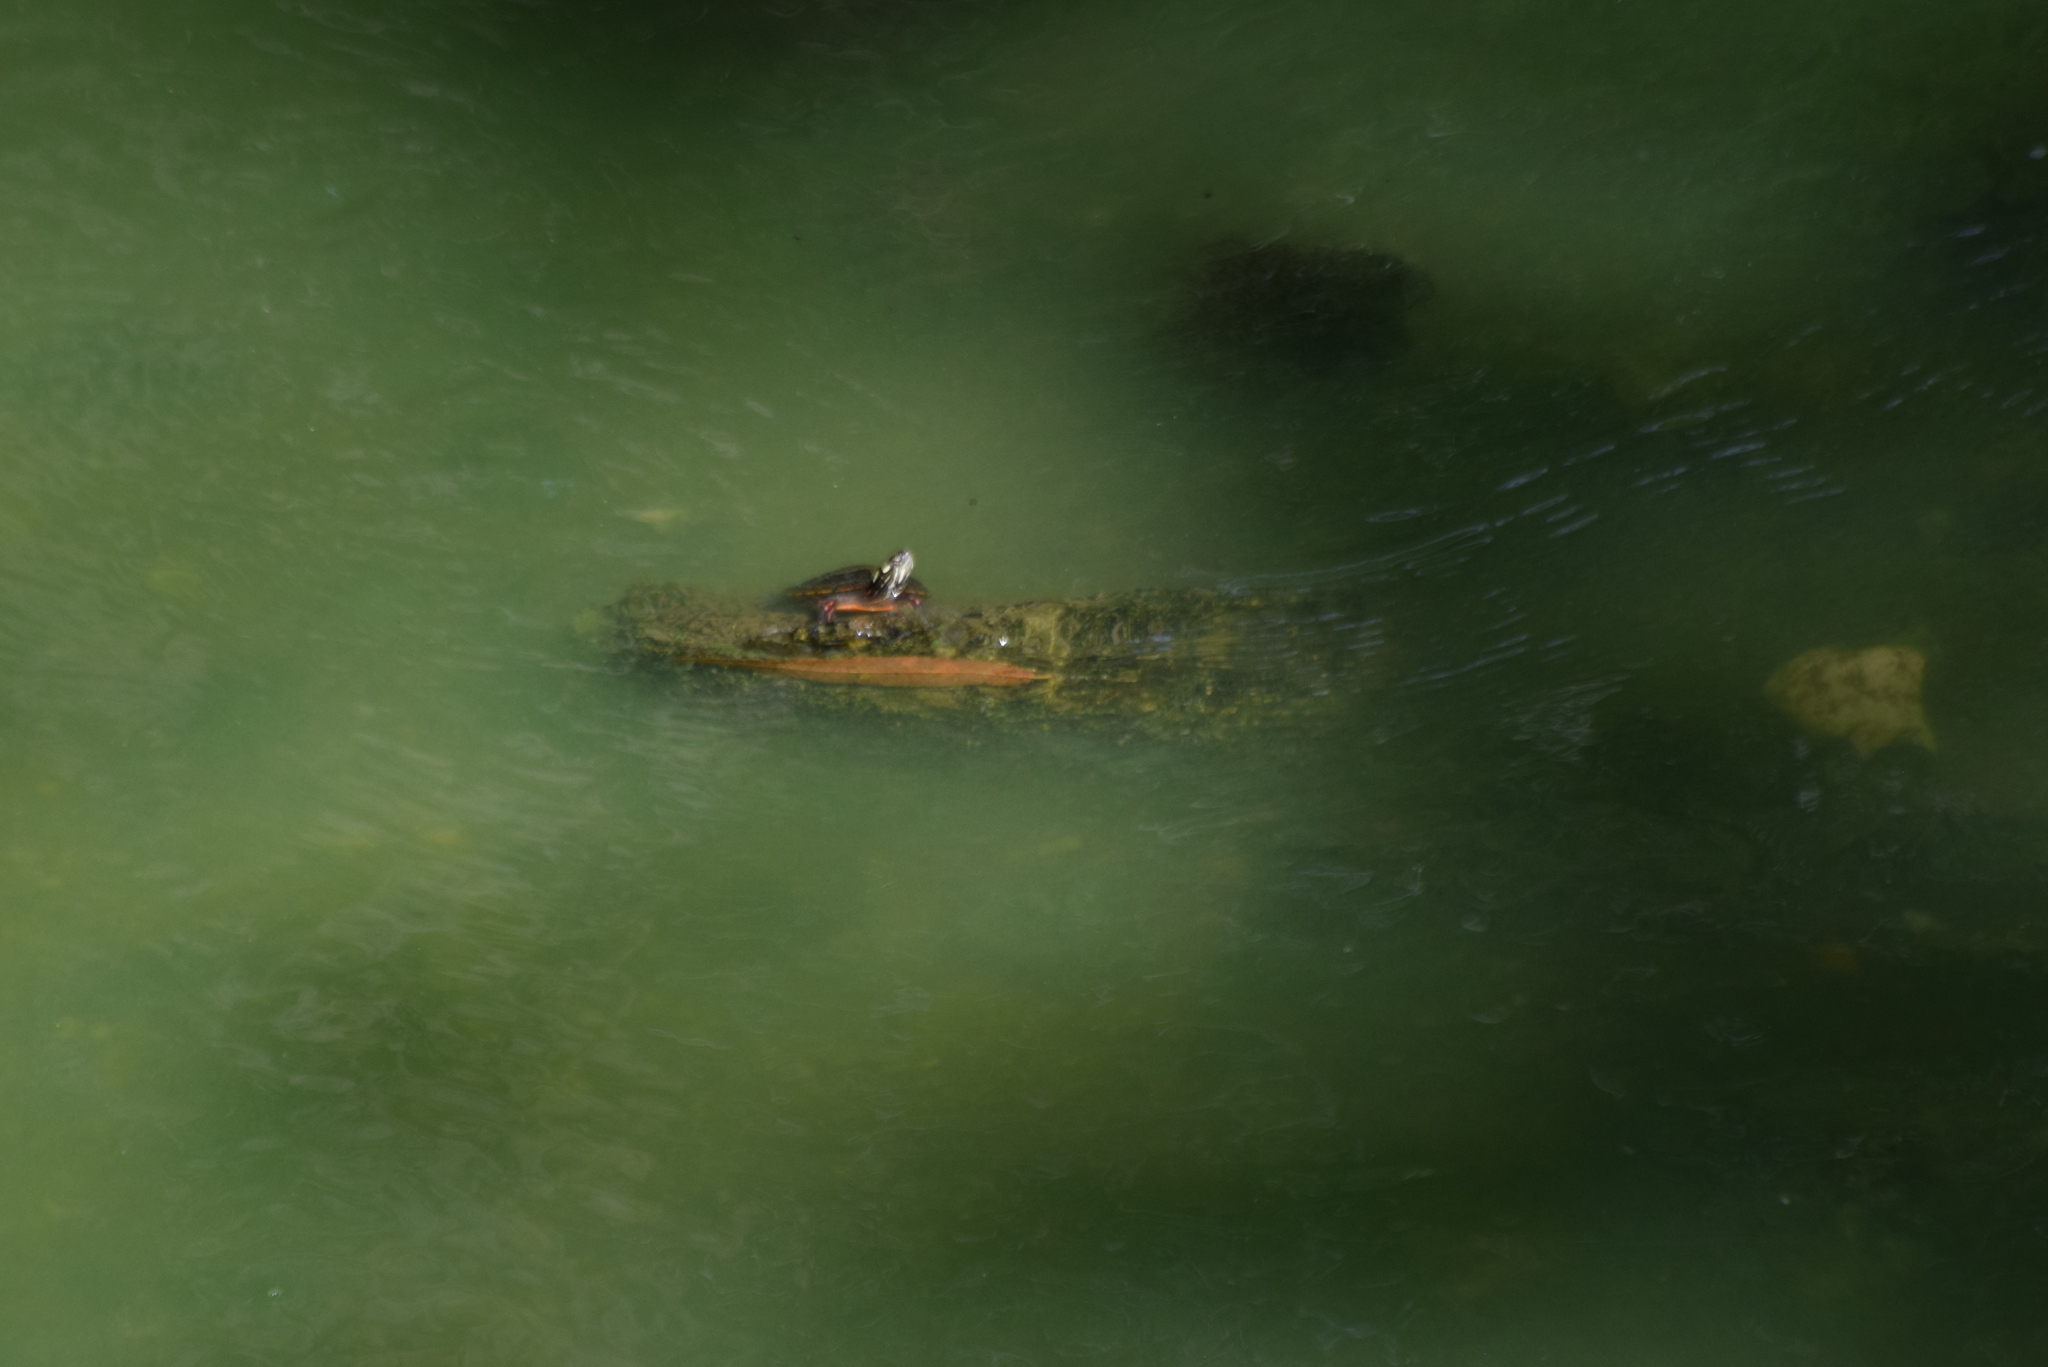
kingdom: Animalia
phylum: Chordata
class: Testudines
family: Emydidae
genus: Chrysemys
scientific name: Chrysemys picta
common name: Painted turtle
